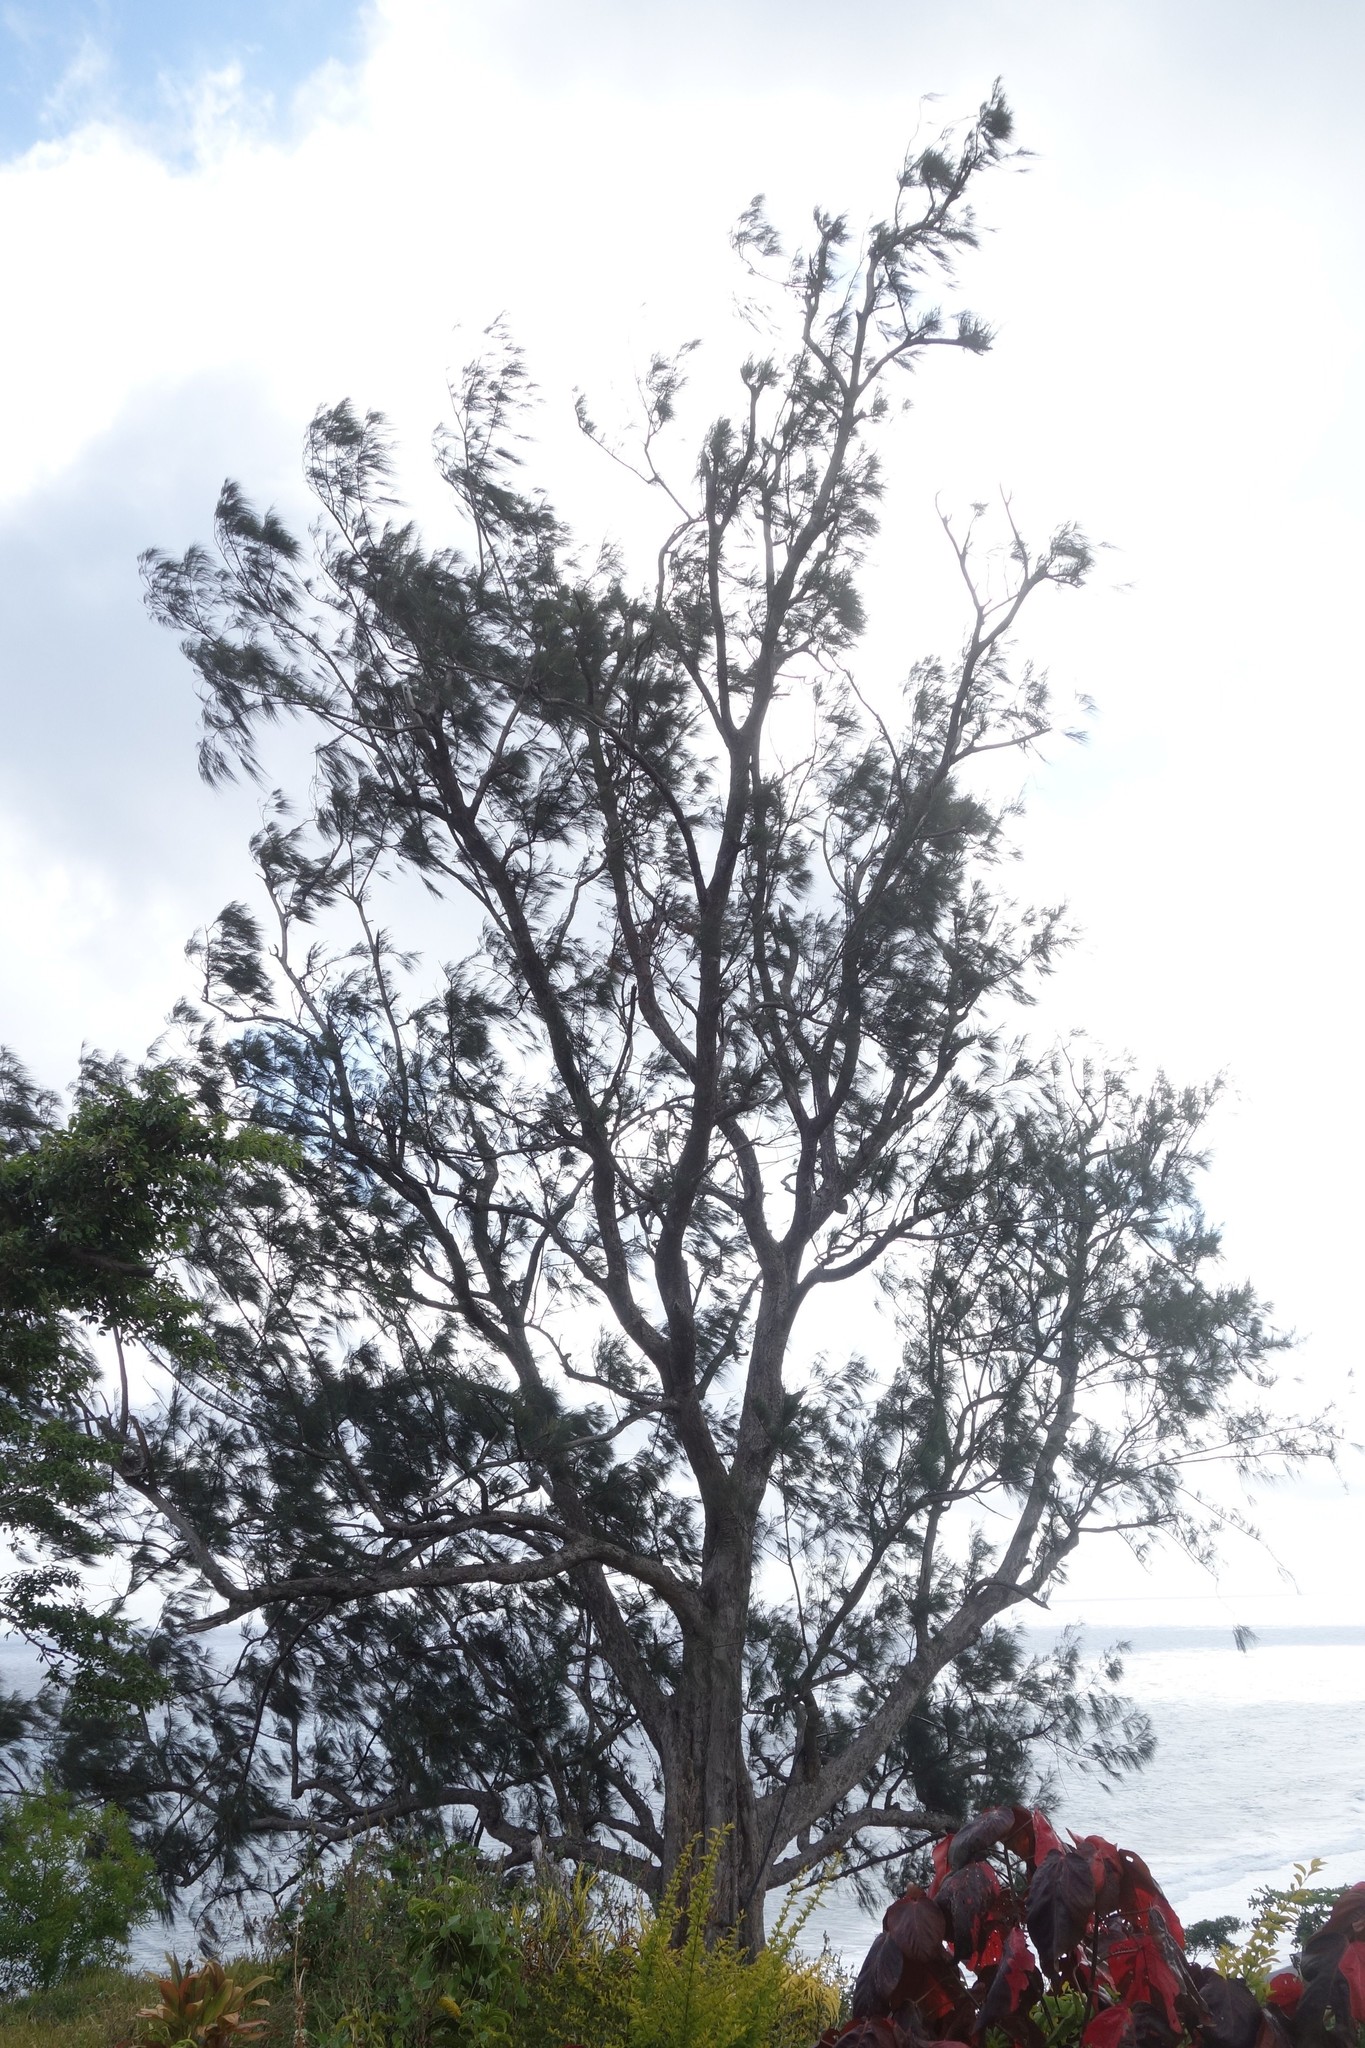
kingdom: Plantae
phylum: Tracheophyta
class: Magnoliopsida
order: Fagales
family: Casuarinaceae
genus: Casuarina
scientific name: Casuarina equisetifolia
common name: Beach sheoak
